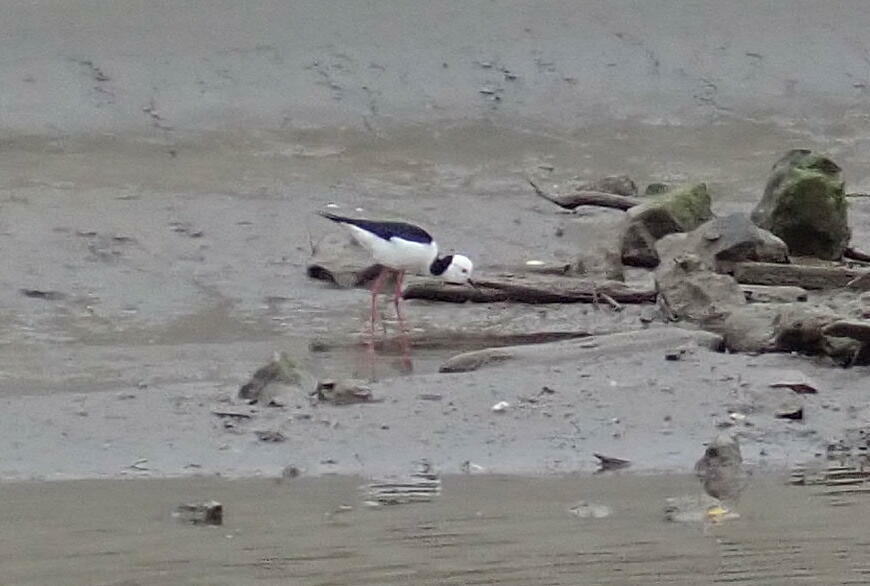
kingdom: Animalia
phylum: Chordata
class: Aves
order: Charadriiformes
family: Recurvirostridae
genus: Himantopus
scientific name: Himantopus leucocephalus
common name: White-headed stilt
